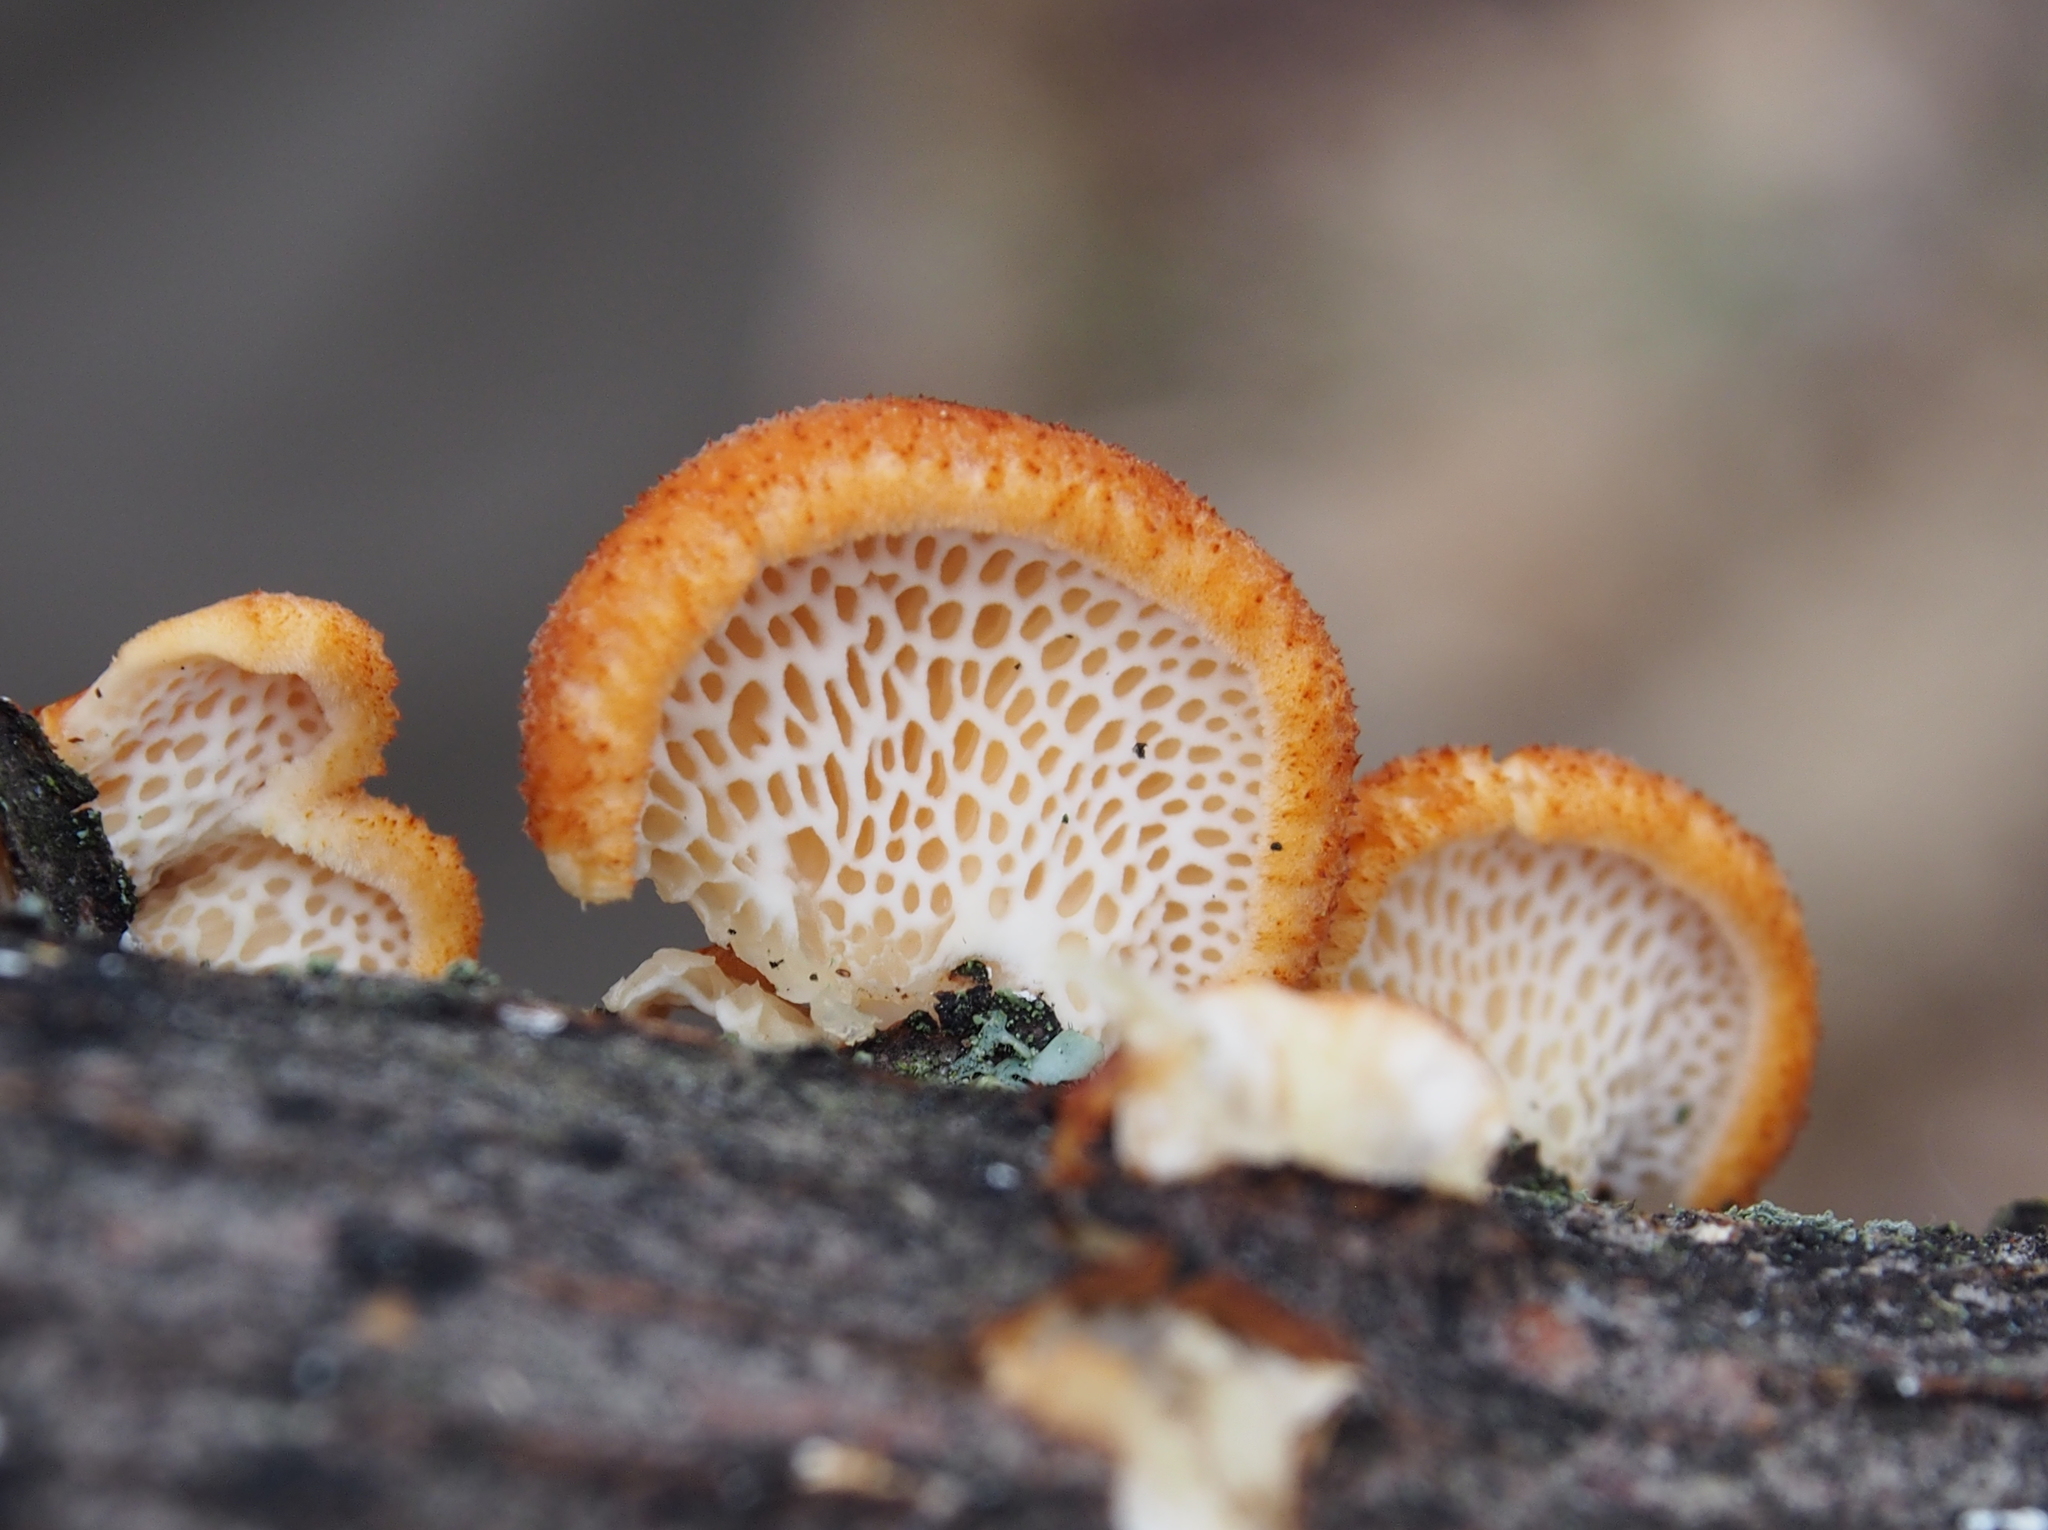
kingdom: Fungi
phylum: Basidiomycota
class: Agaricomycetes
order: Polyporales
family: Polyporaceae
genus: Neofavolus
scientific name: Neofavolus alveolaris
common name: Hexagonal-pored polypore
